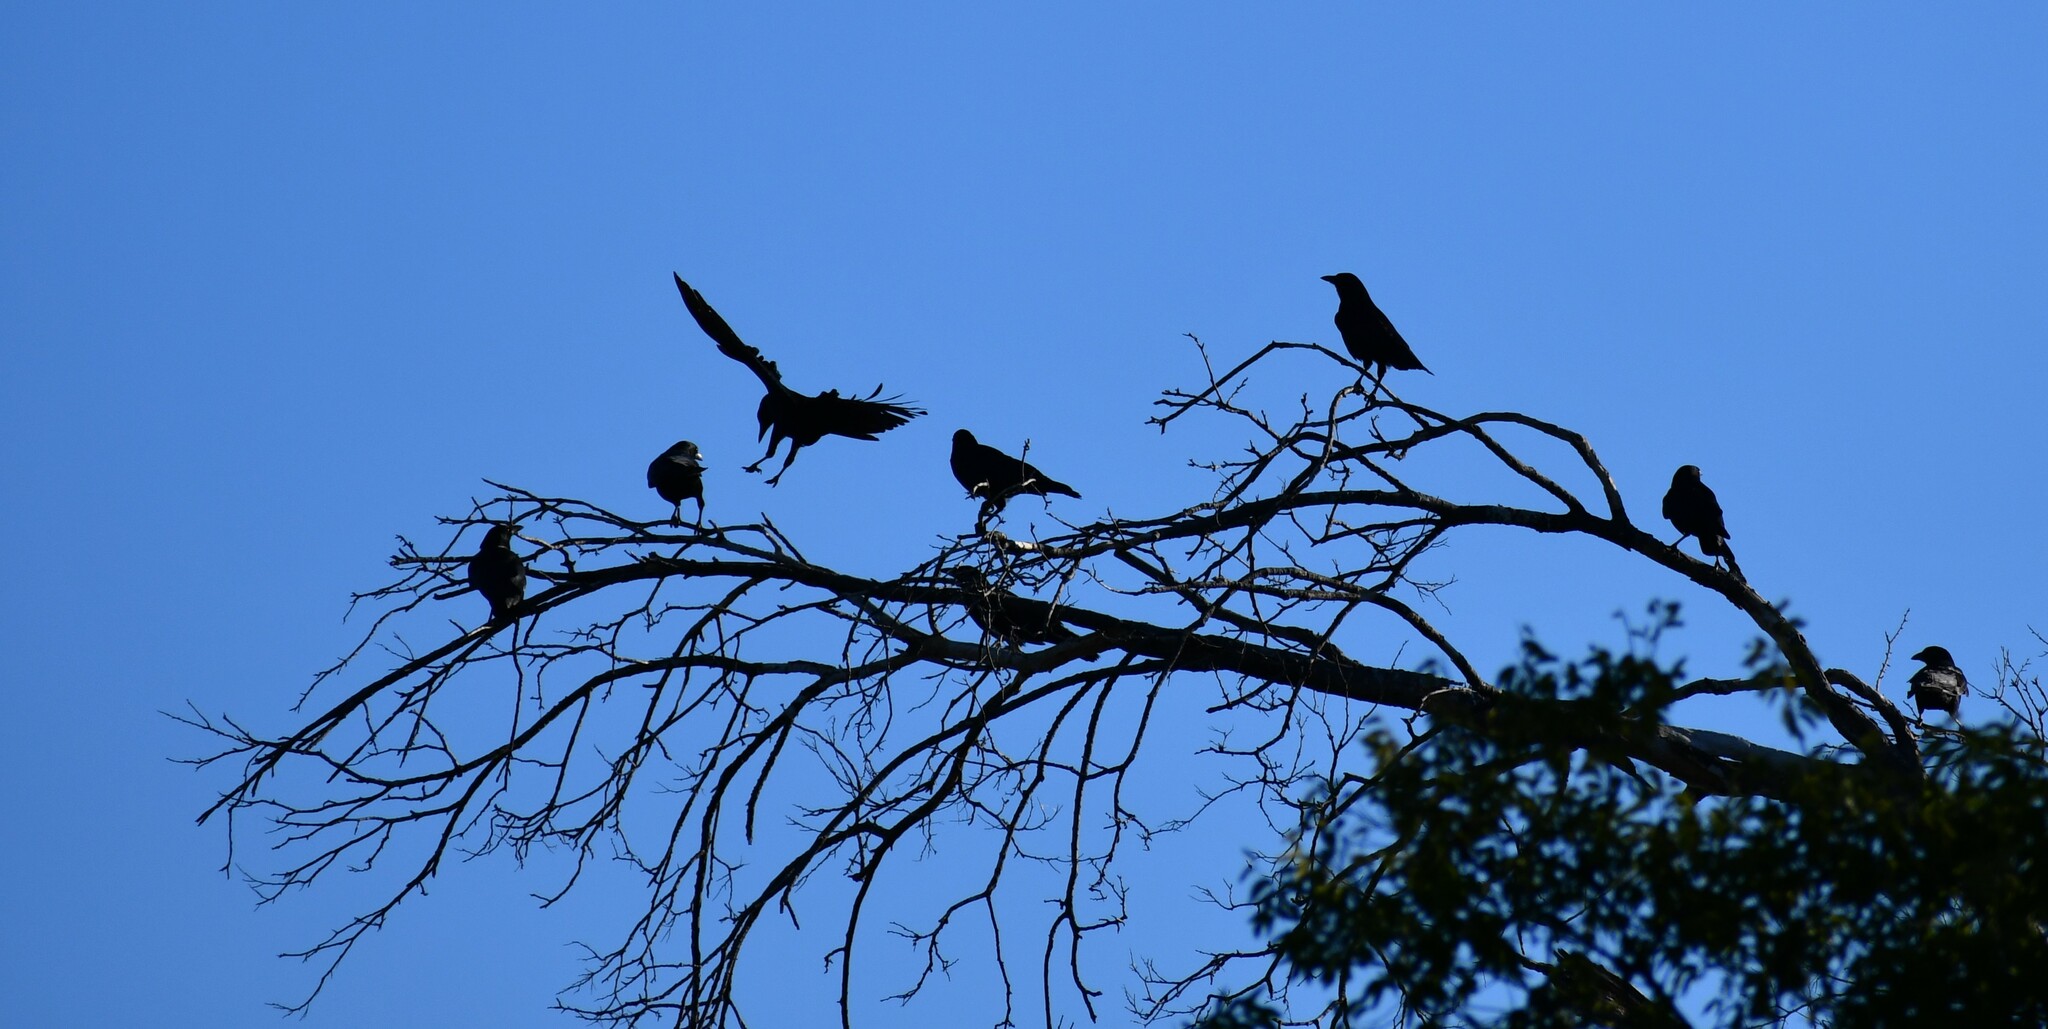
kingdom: Animalia
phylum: Chordata
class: Aves
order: Passeriformes
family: Corvidae
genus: Corvus
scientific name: Corvus brachyrhynchos
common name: American crow
